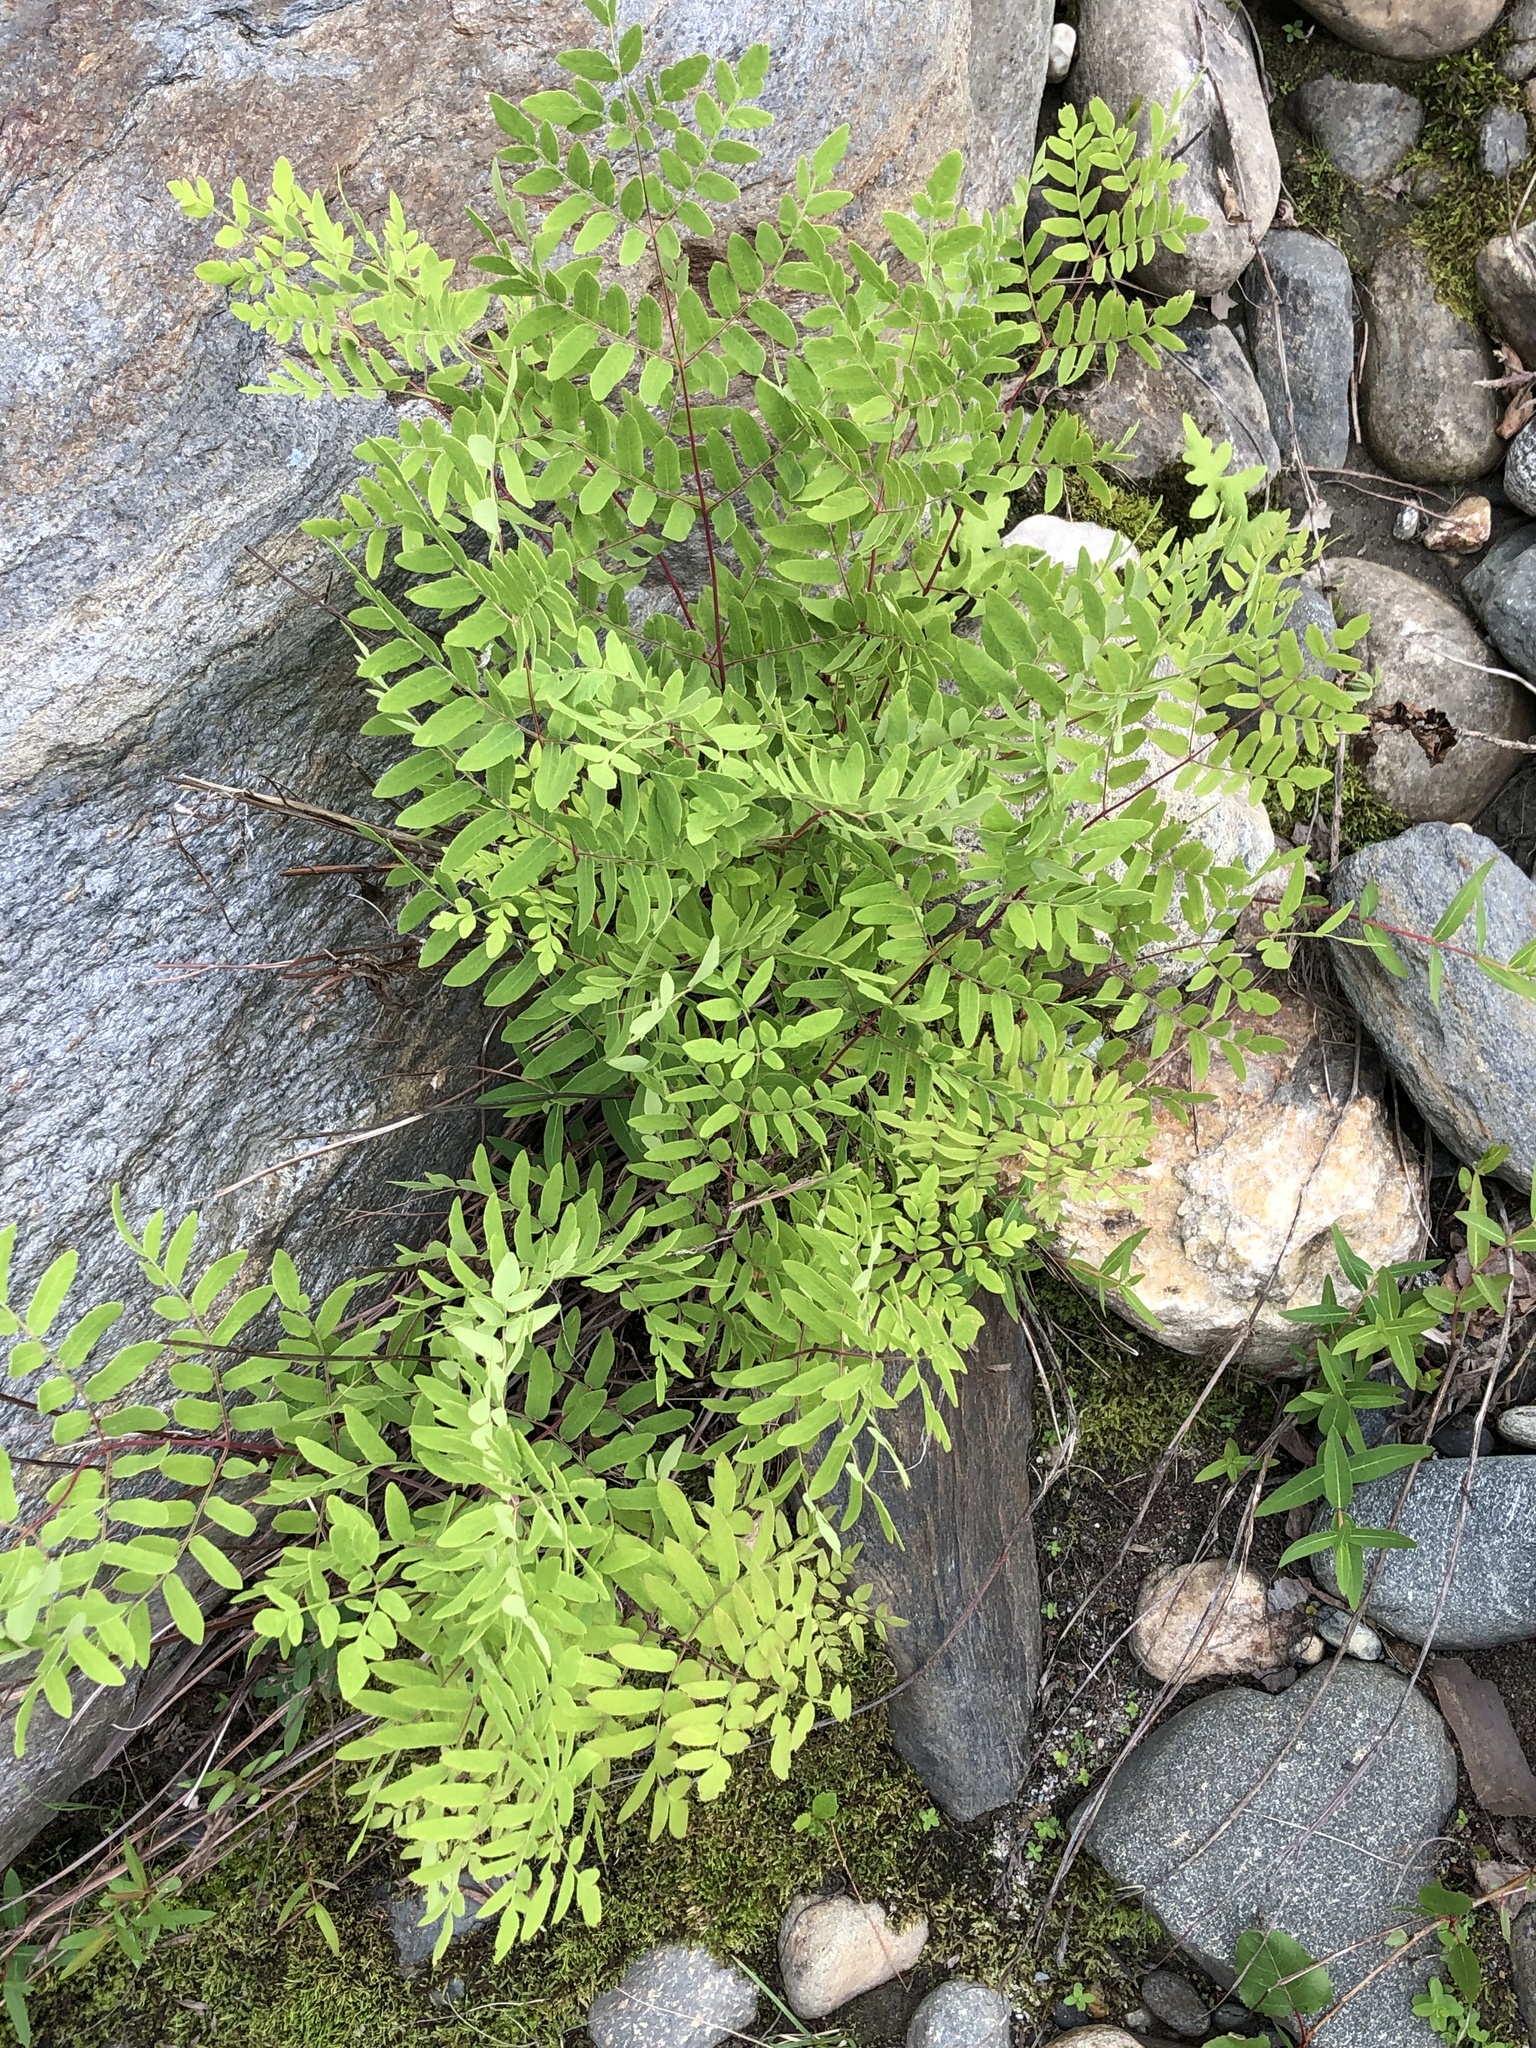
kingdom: Plantae
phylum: Tracheophyta
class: Polypodiopsida
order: Osmundales
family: Osmundaceae
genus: Osmunda
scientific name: Osmunda spectabilis
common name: American royal fern
